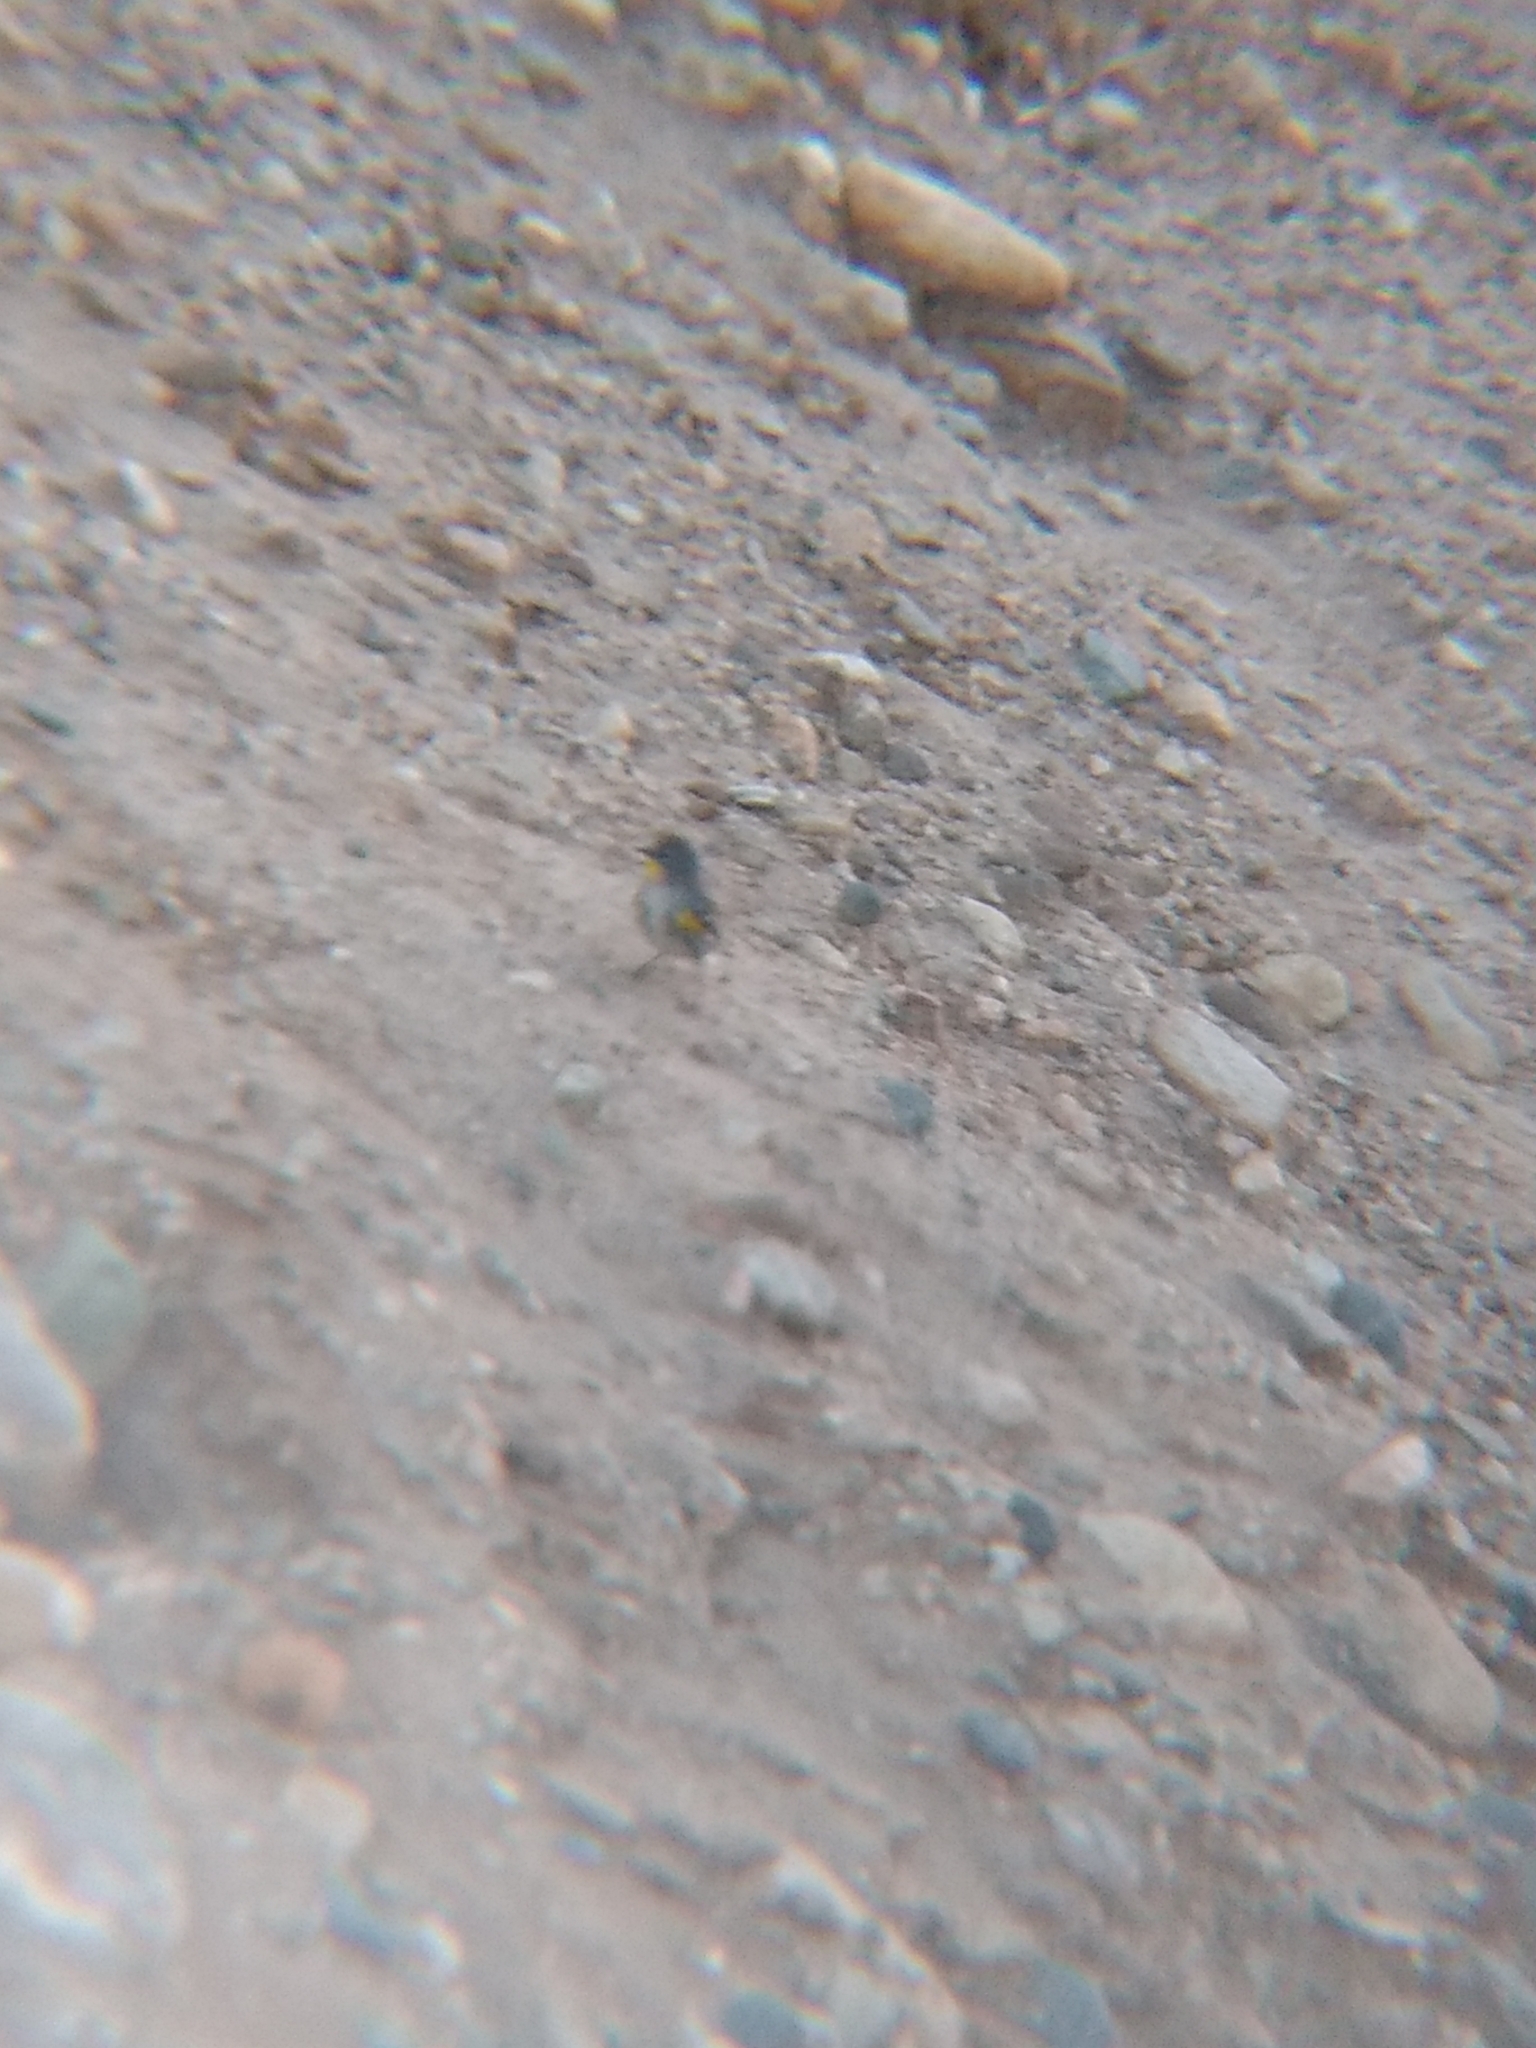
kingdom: Animalia
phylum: Chordata
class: Aves
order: Passeriformes
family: Parulidae
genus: Setophaga
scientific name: Setophaga coronata
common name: Myrtle warbler
